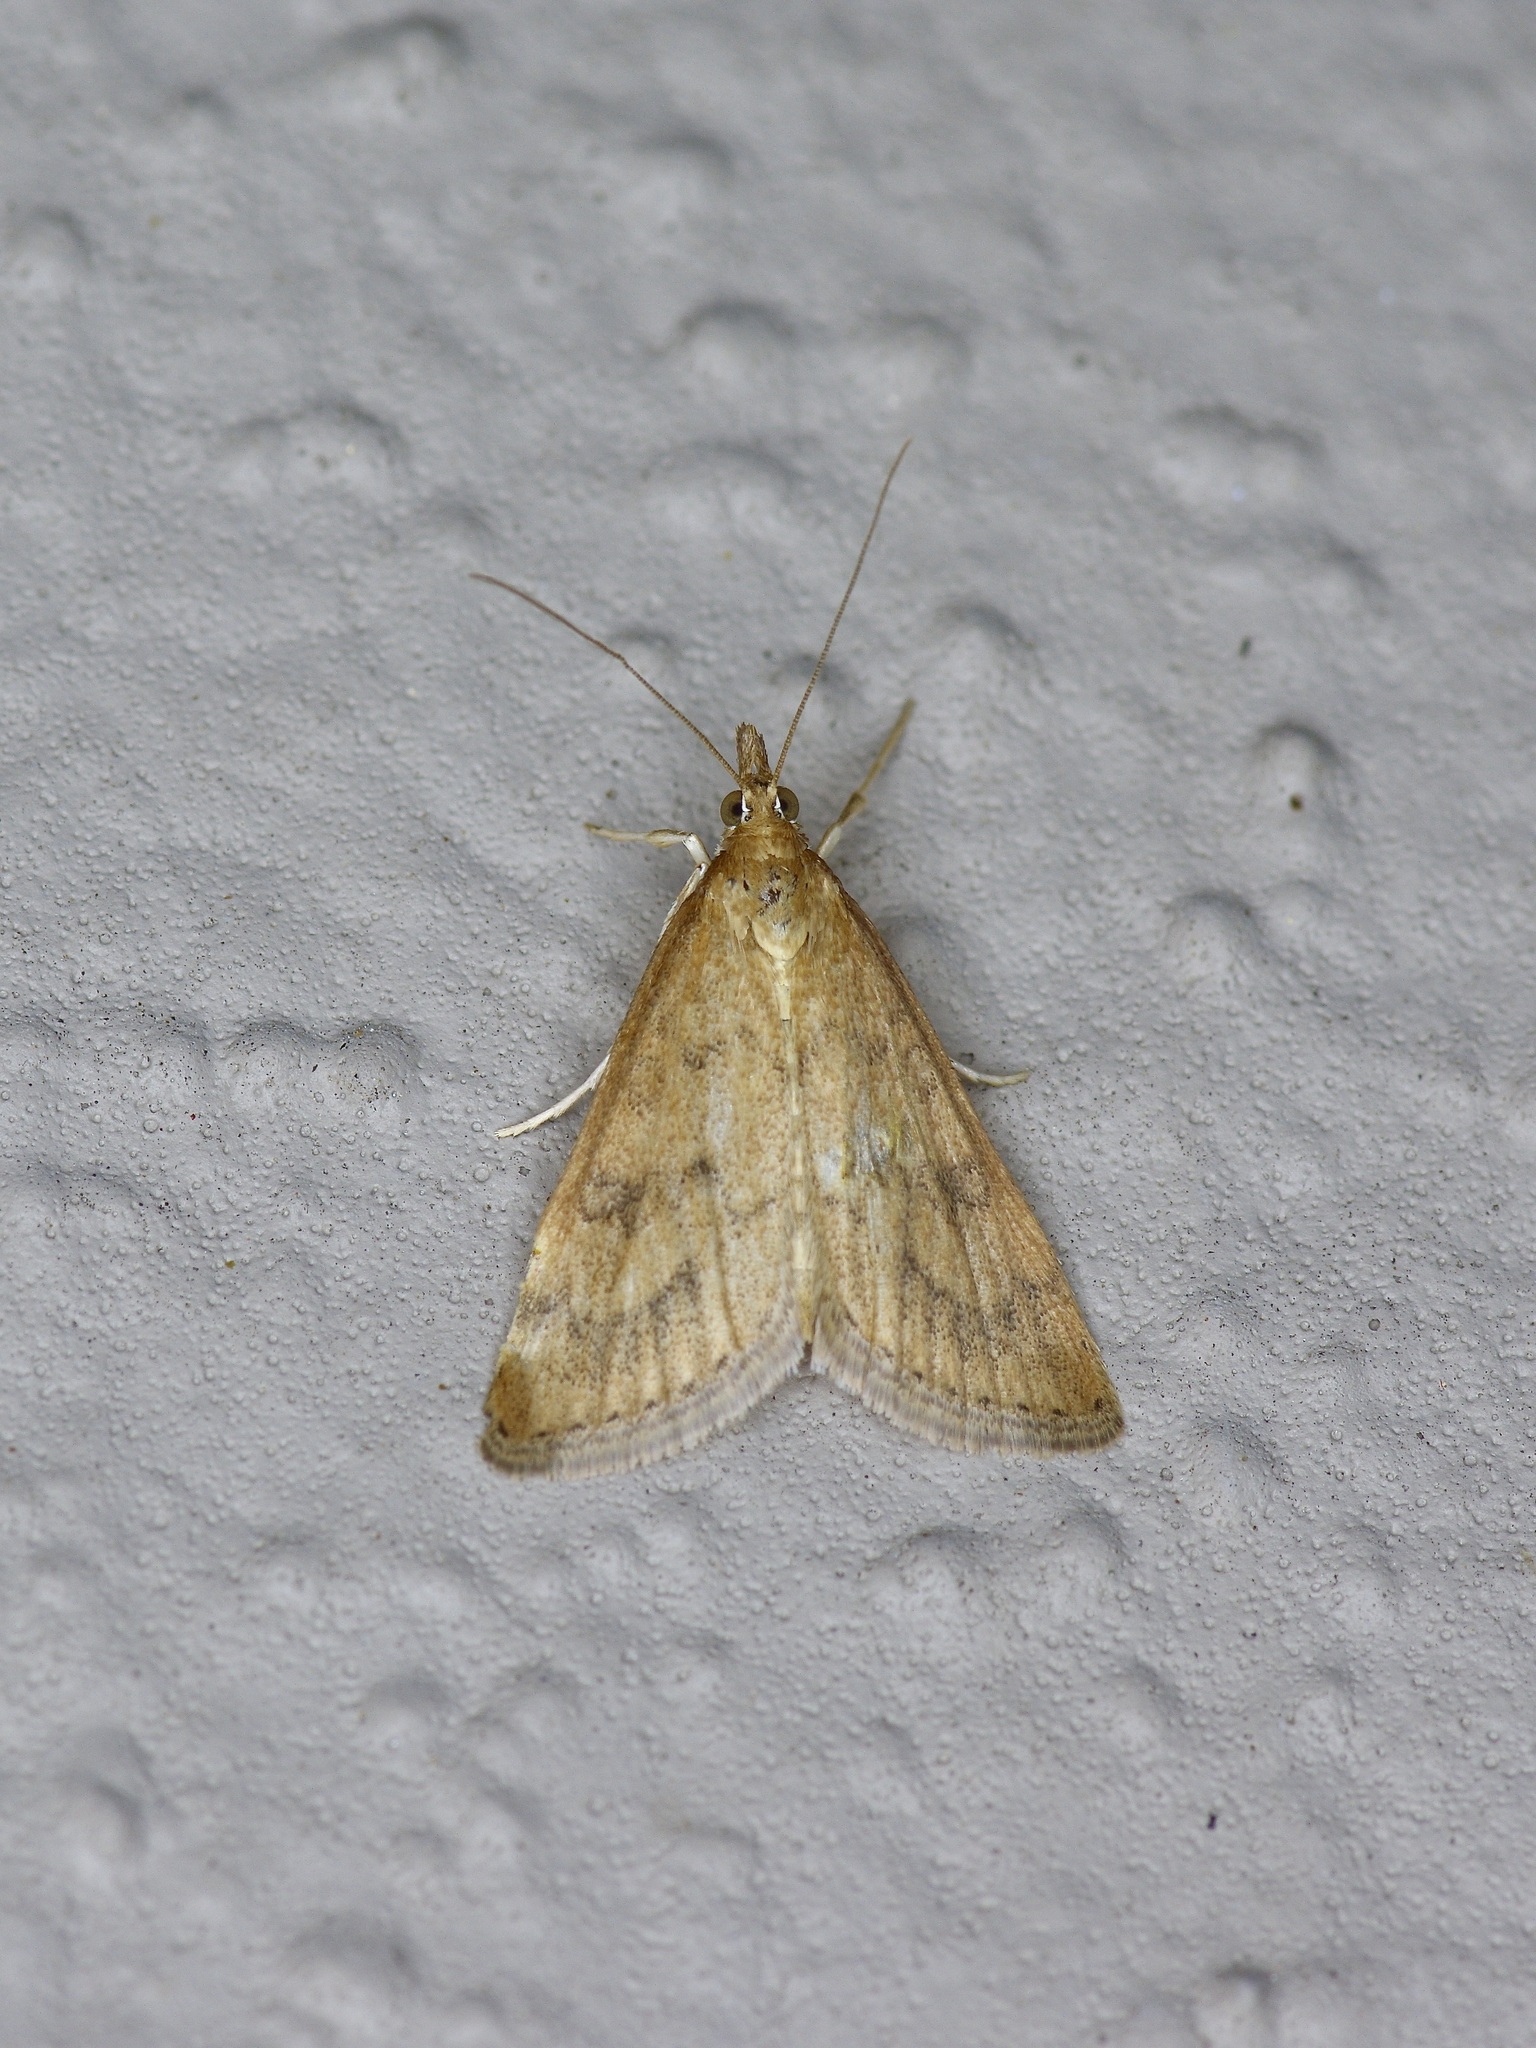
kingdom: Animalia
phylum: Arthropoda
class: Insecta
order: Lepidoptera
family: Crambidae
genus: Udea
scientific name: Udea rubigalis
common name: Celery leaftier moth
